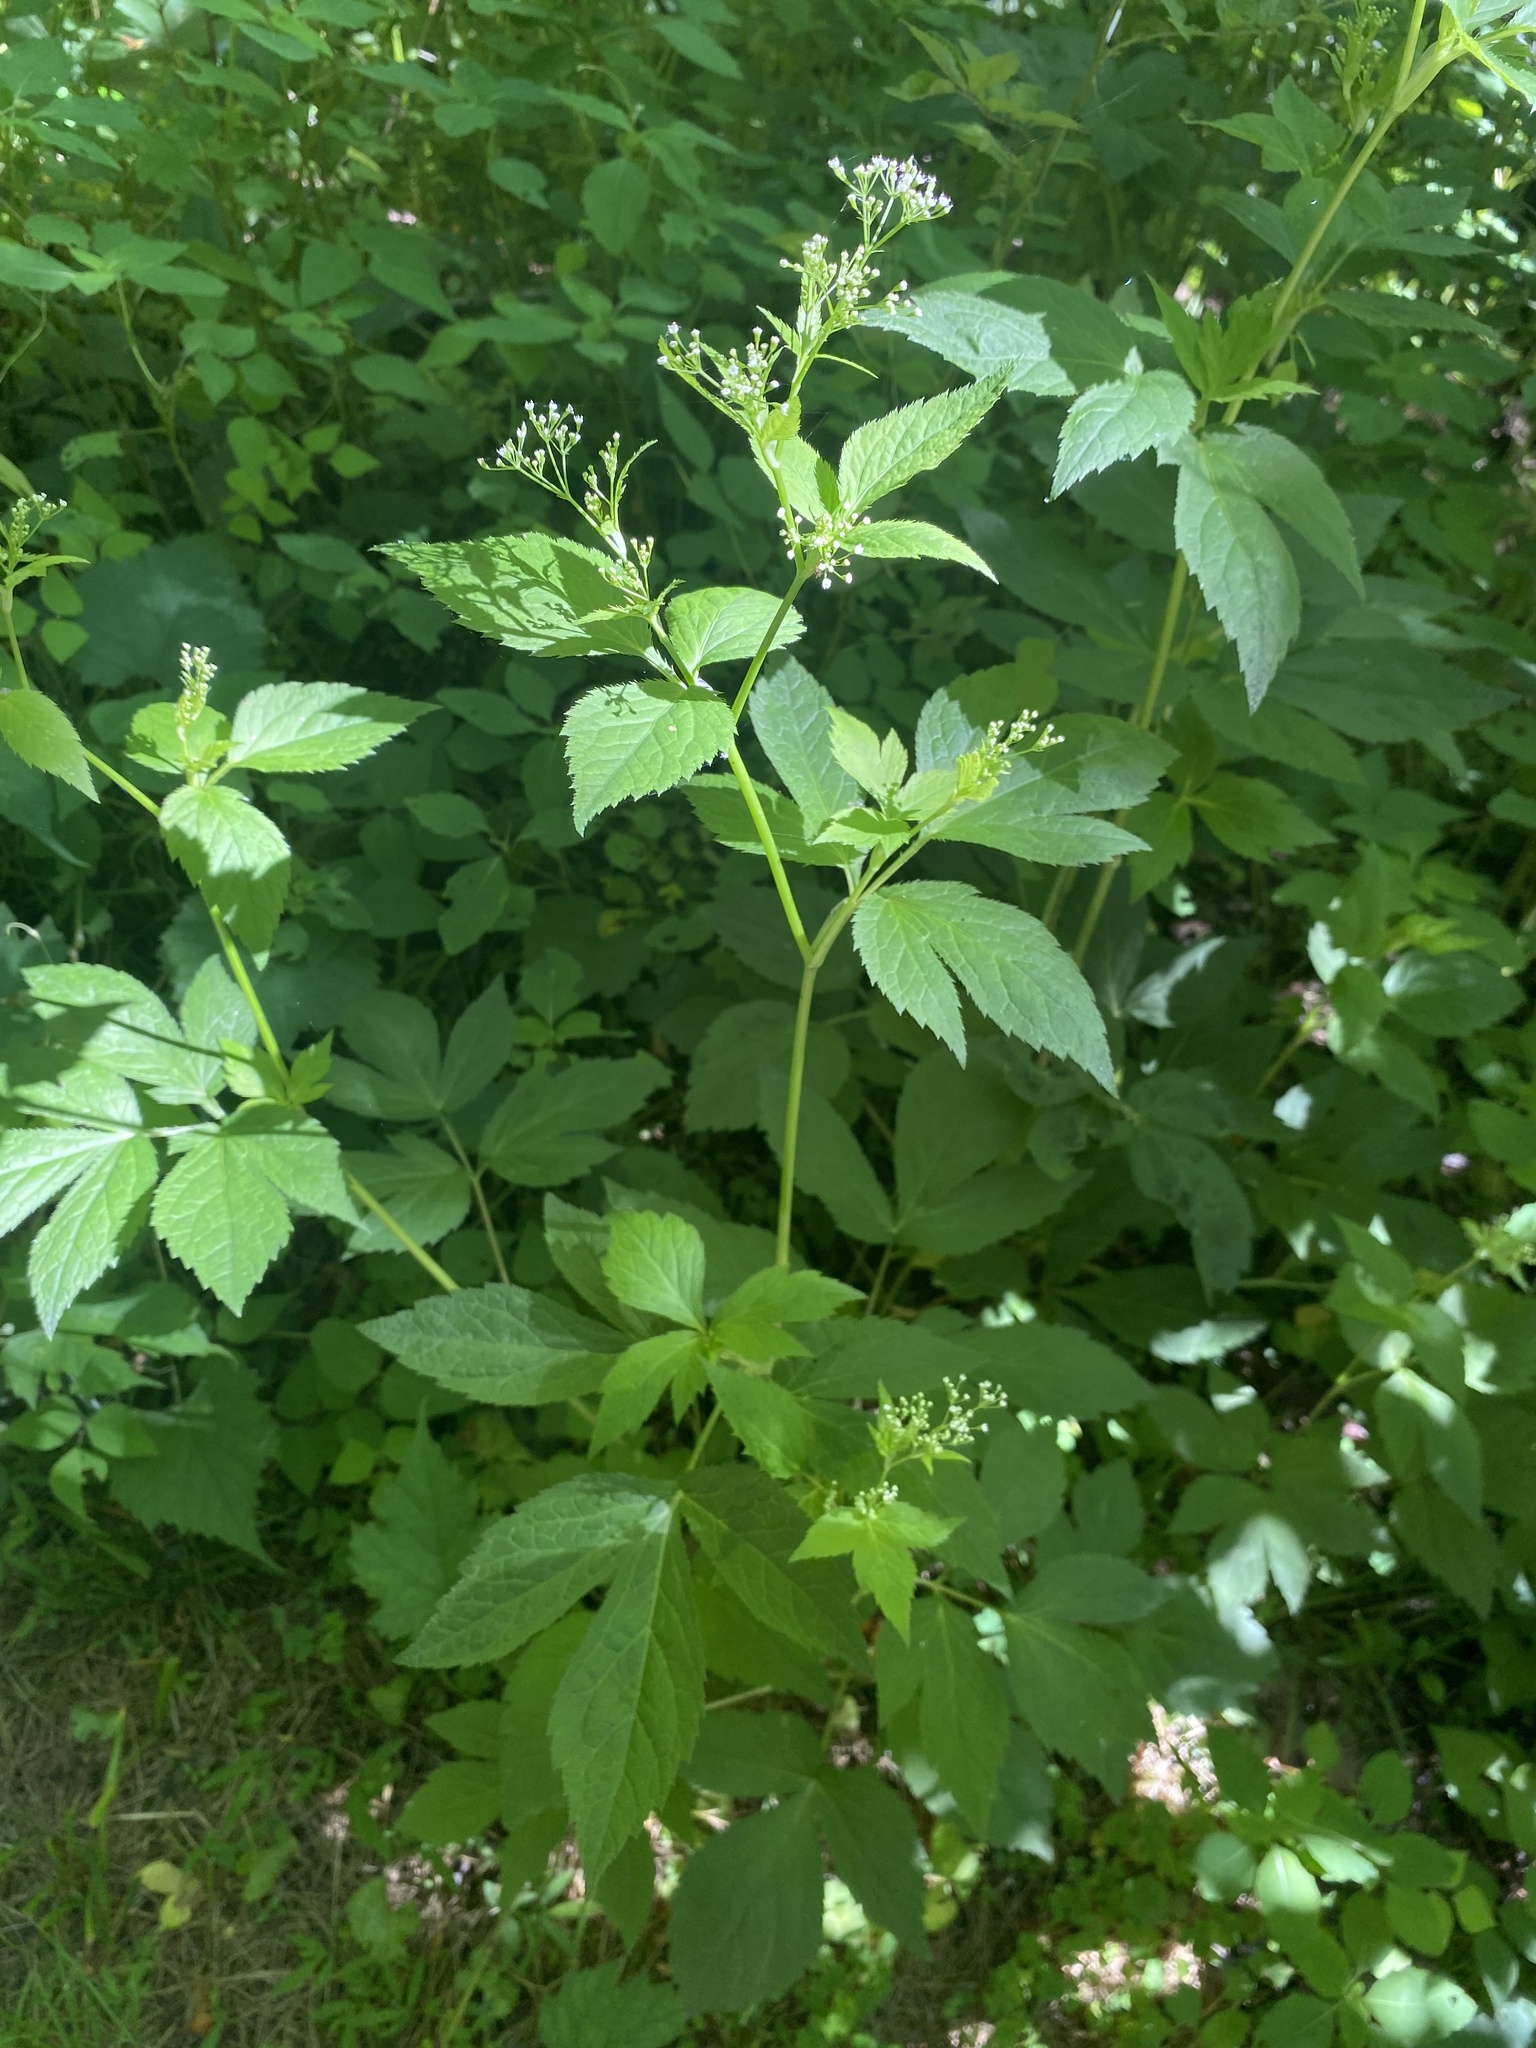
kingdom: Plantae
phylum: Tracheophyta
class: Magnoliopsida
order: Apiales
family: Apiaceae
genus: Cryptotaenia
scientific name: Cryptotaenia canadensis
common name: Honewort
